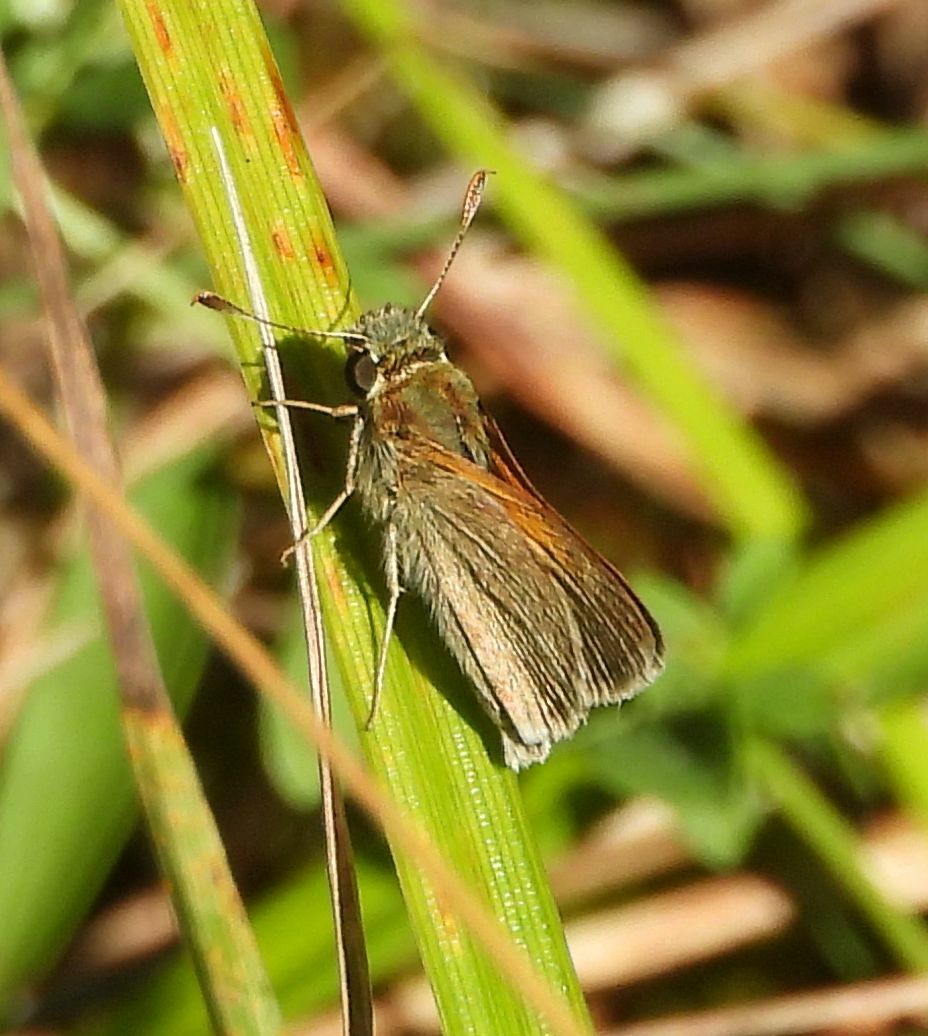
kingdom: Animalia
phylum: Arthropoda
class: Insecta
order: Lepidoptera
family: Hesperiidae
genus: Polites
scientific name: Polites themistocles
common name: Tawny-edged skipper
